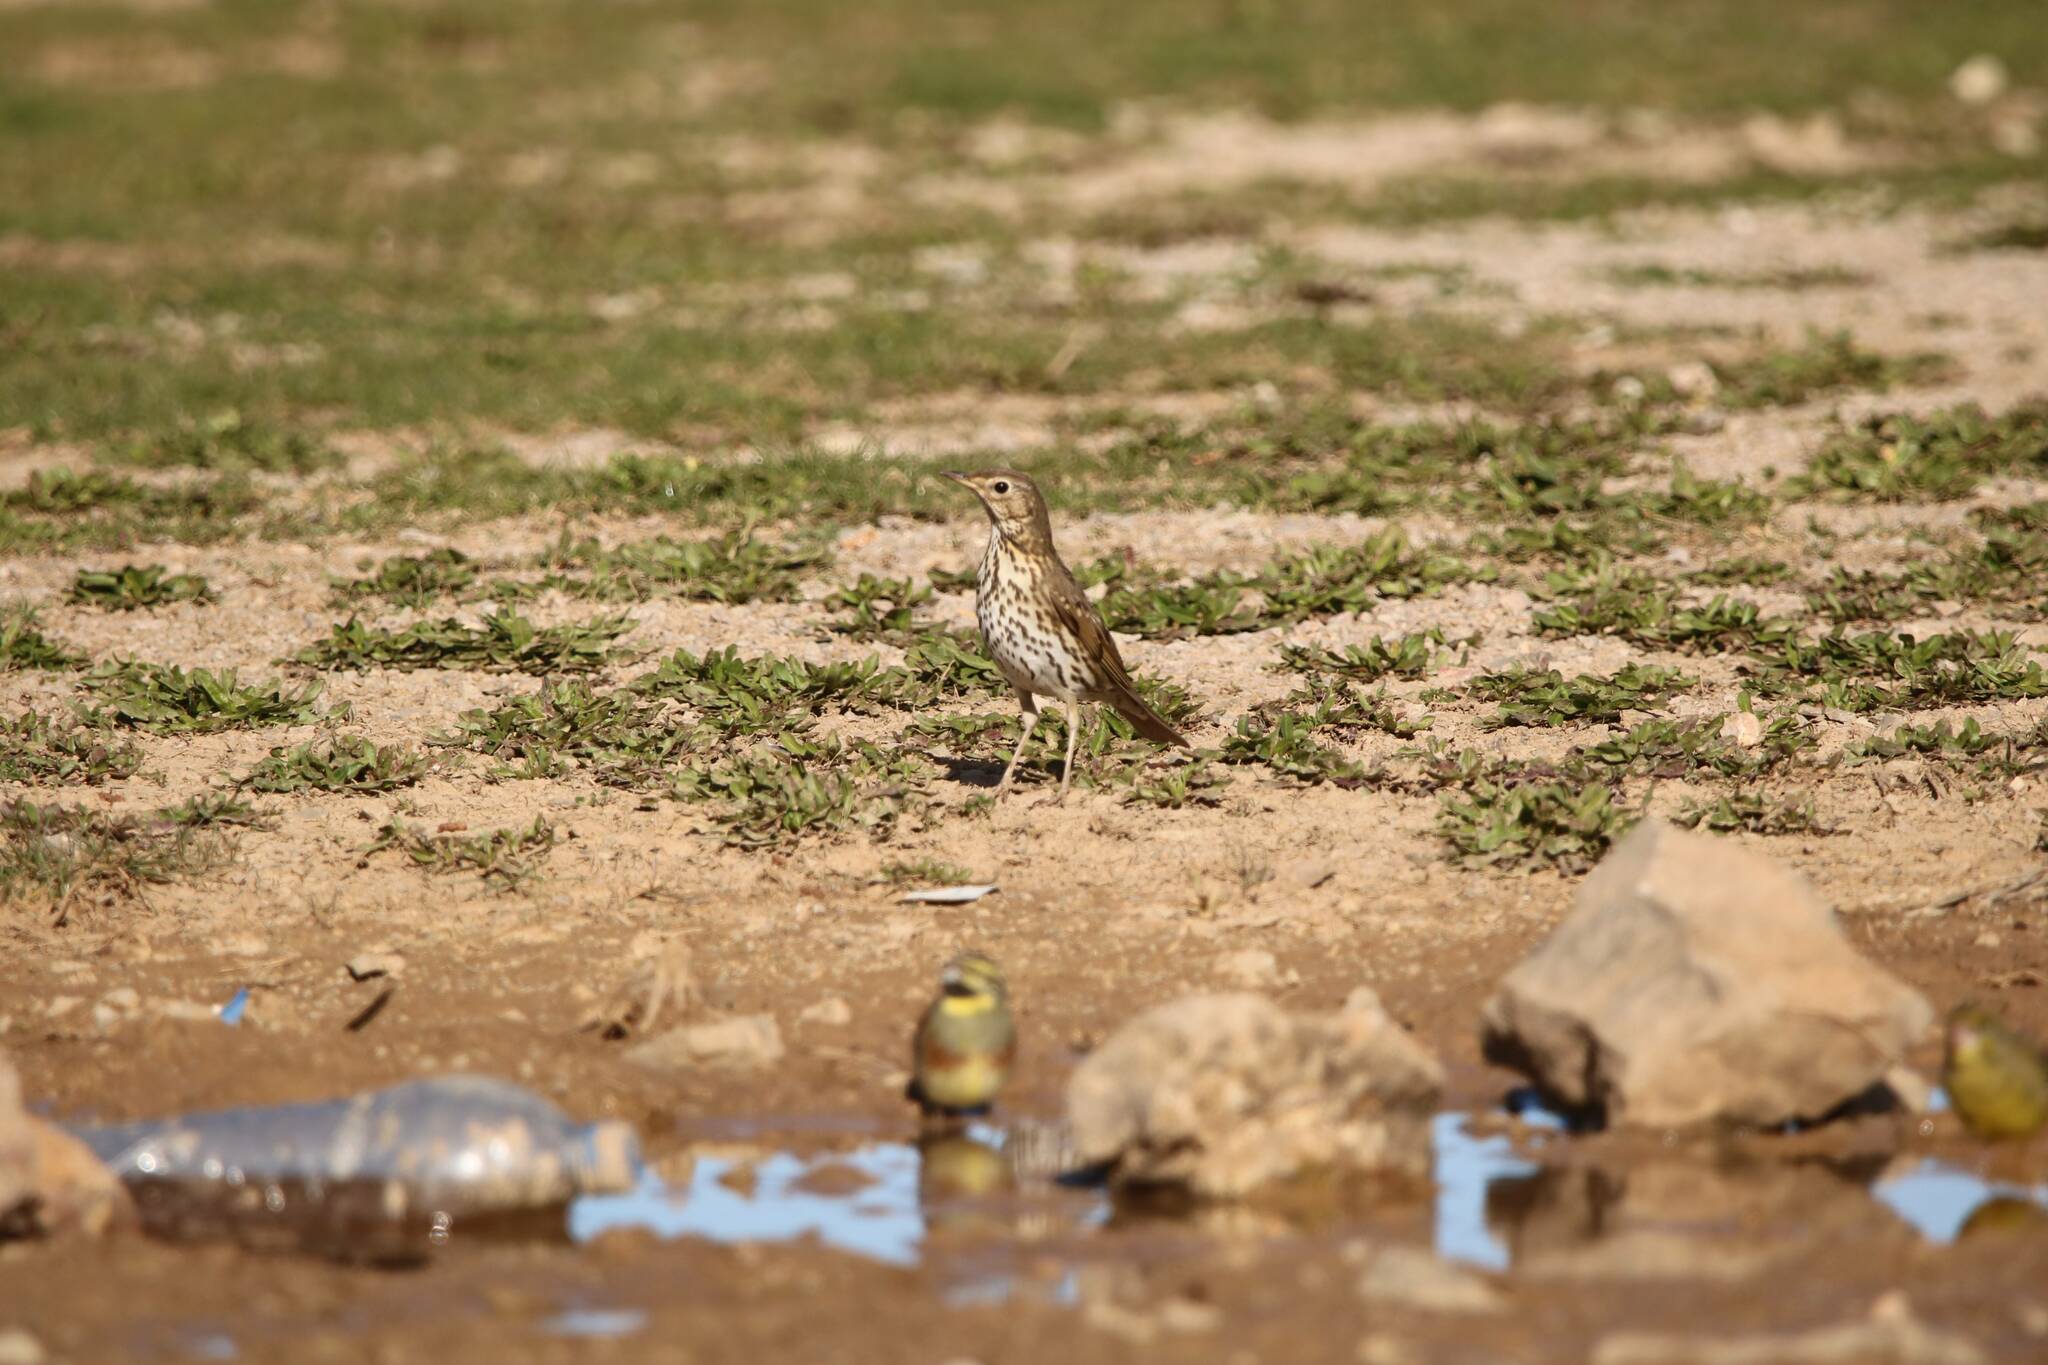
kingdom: Animalia
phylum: Chordata
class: Aves
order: Passeriformes
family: Turdidae
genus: Turdus
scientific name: Turdus philomelos
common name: Song thrush
